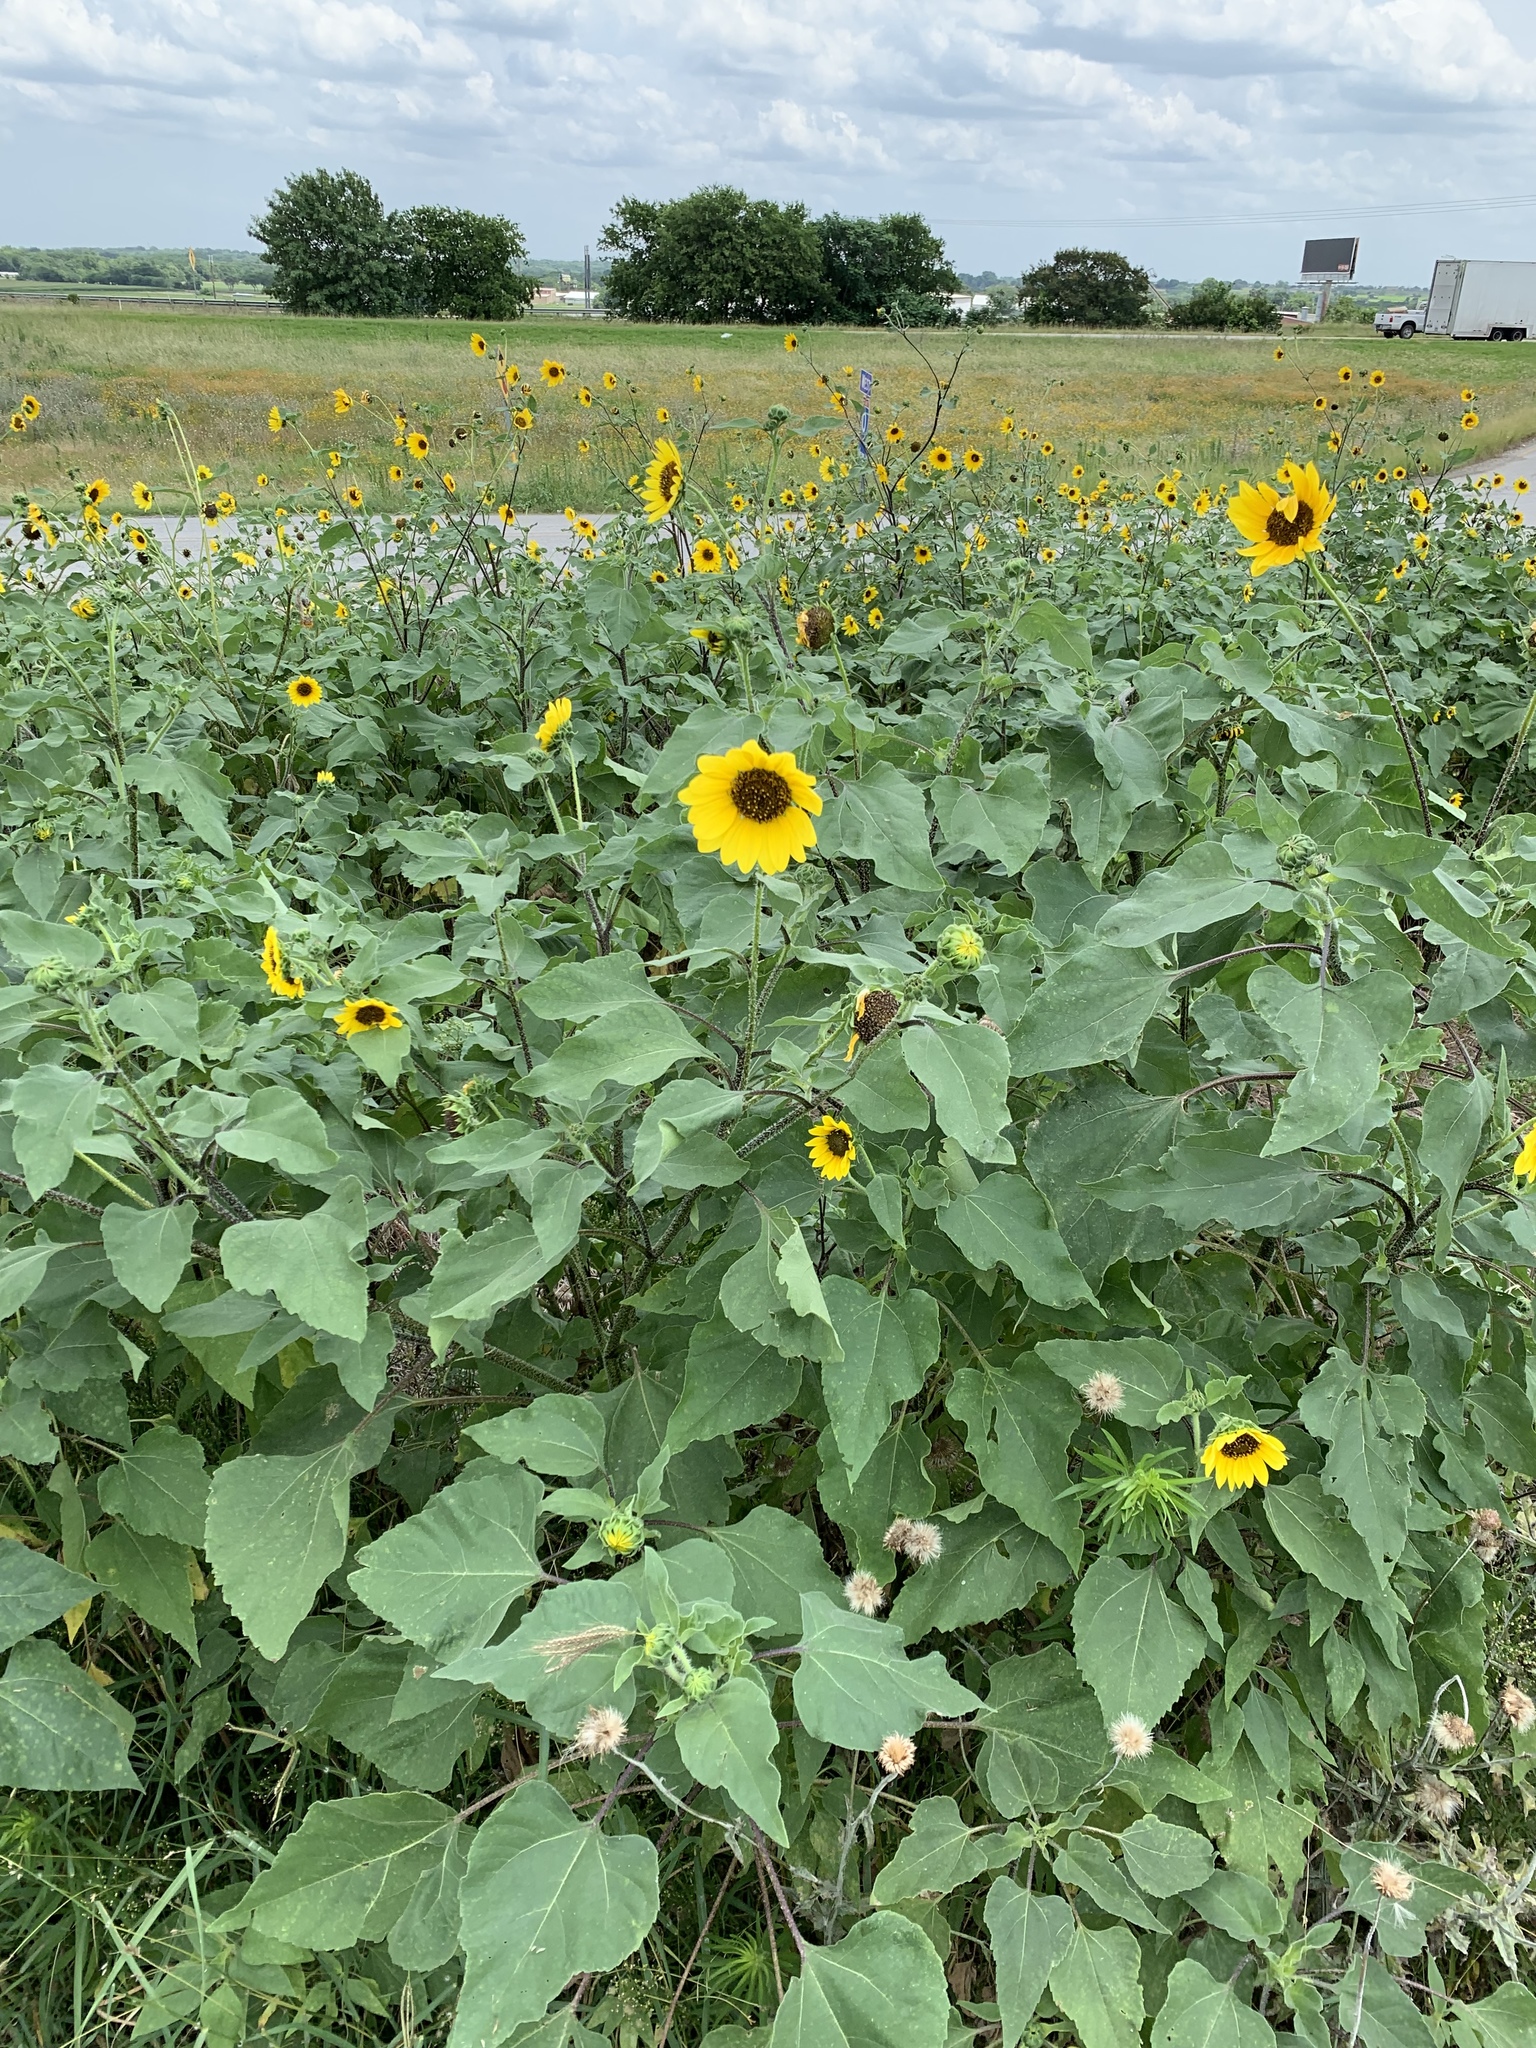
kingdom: Plantae
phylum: Tracheophyta
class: Magnoliopsida
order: Asterales
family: Asteraceae
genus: Helianthus
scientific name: Helianthus annuus
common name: Sunflower
